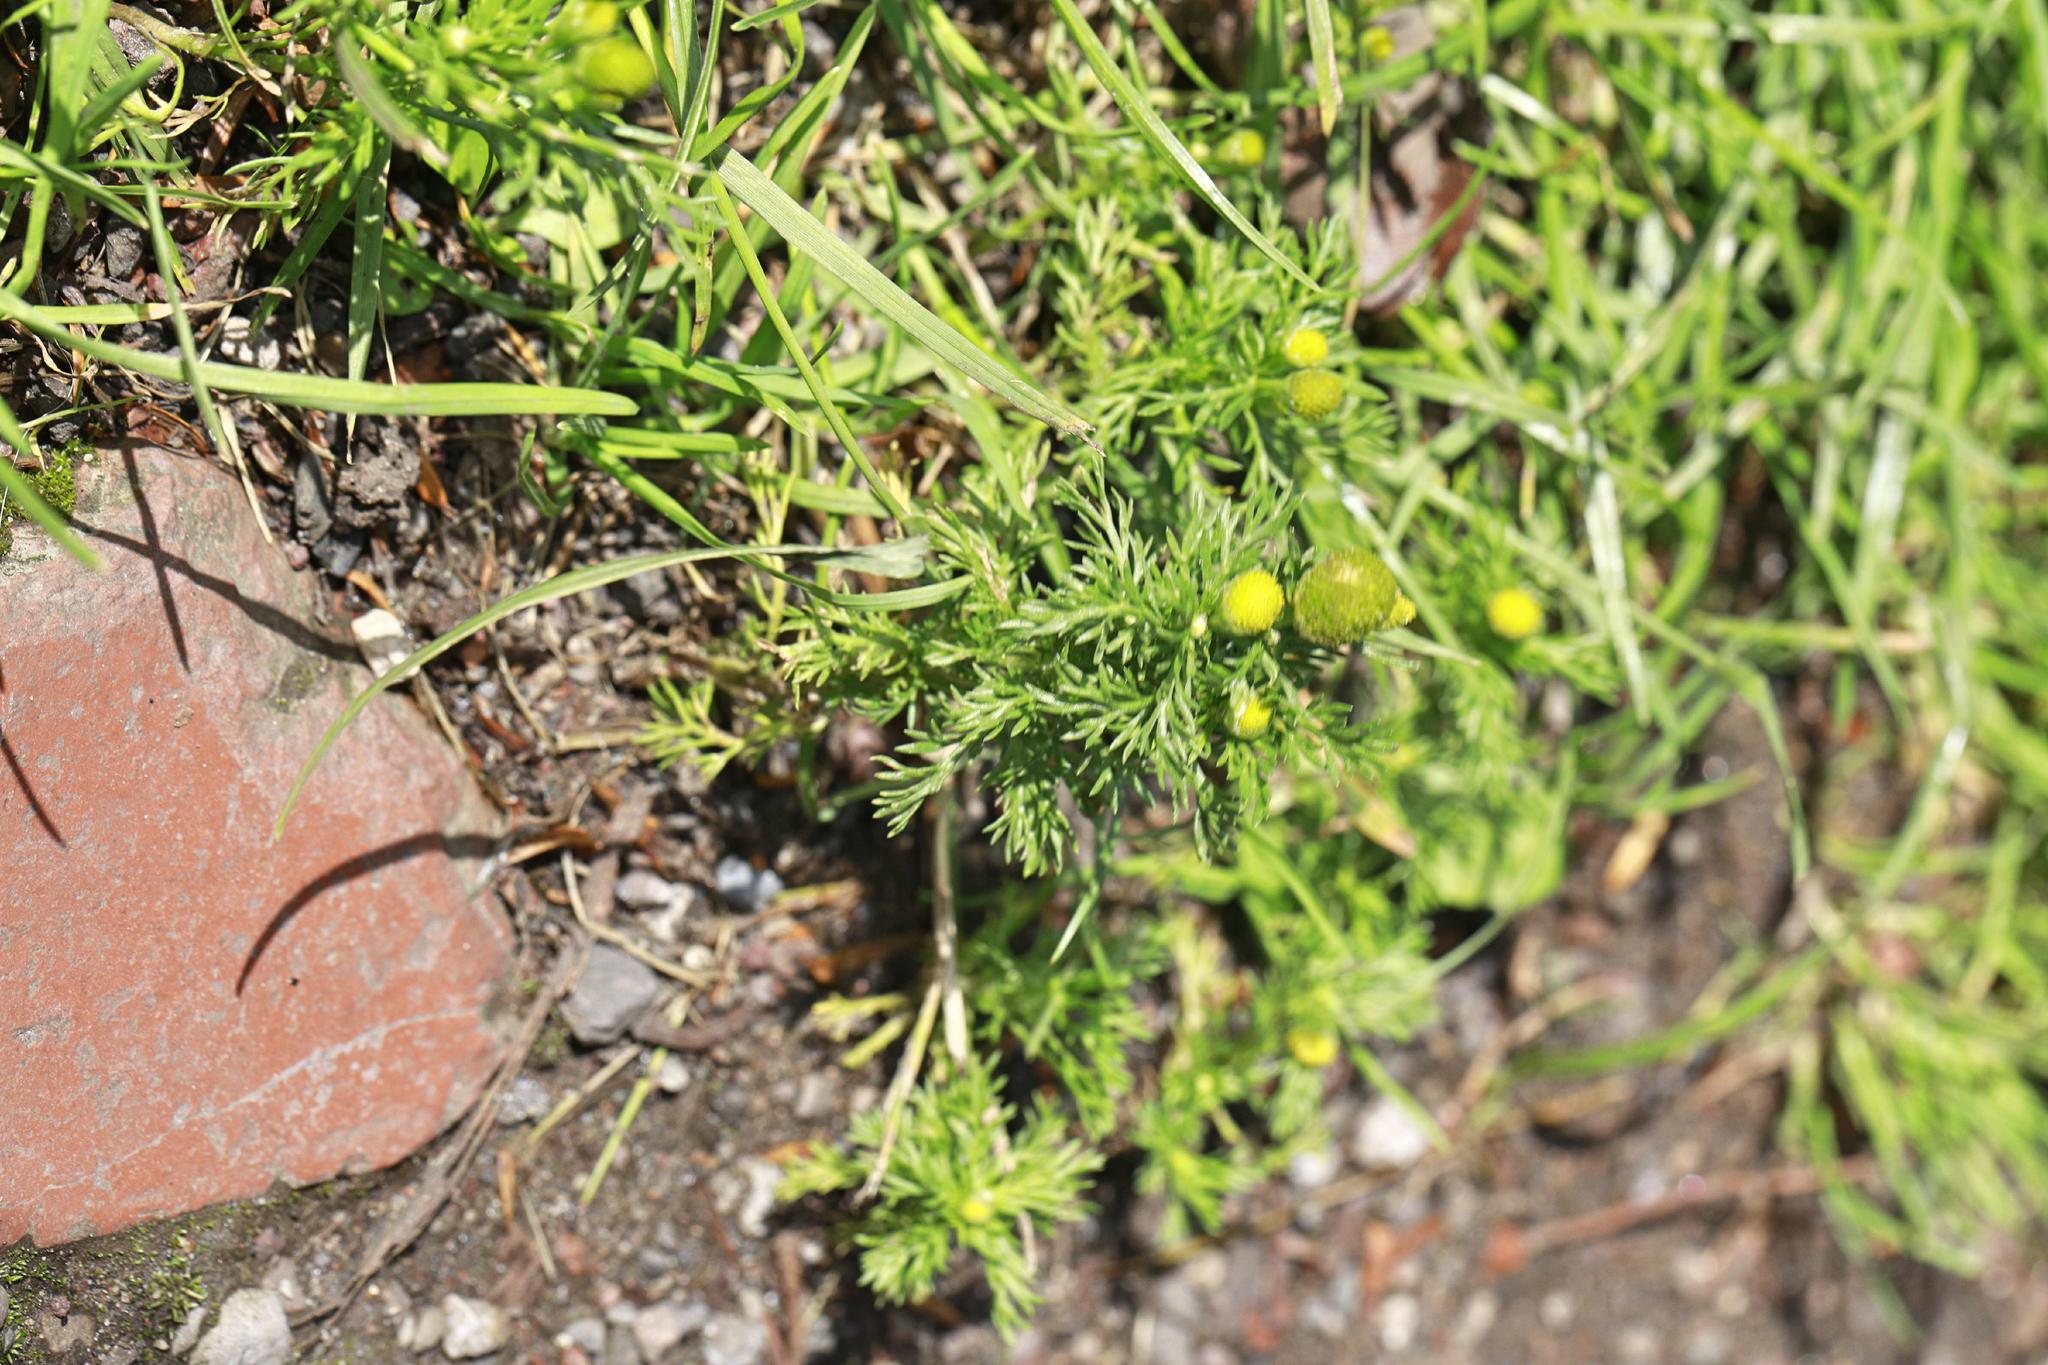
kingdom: Plantae
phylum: Tracheophyta
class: Magnoliopsida
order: Asterales
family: Asteraceae
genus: Matricaria
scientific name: Matricaria discoidea
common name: Disc mayweed
